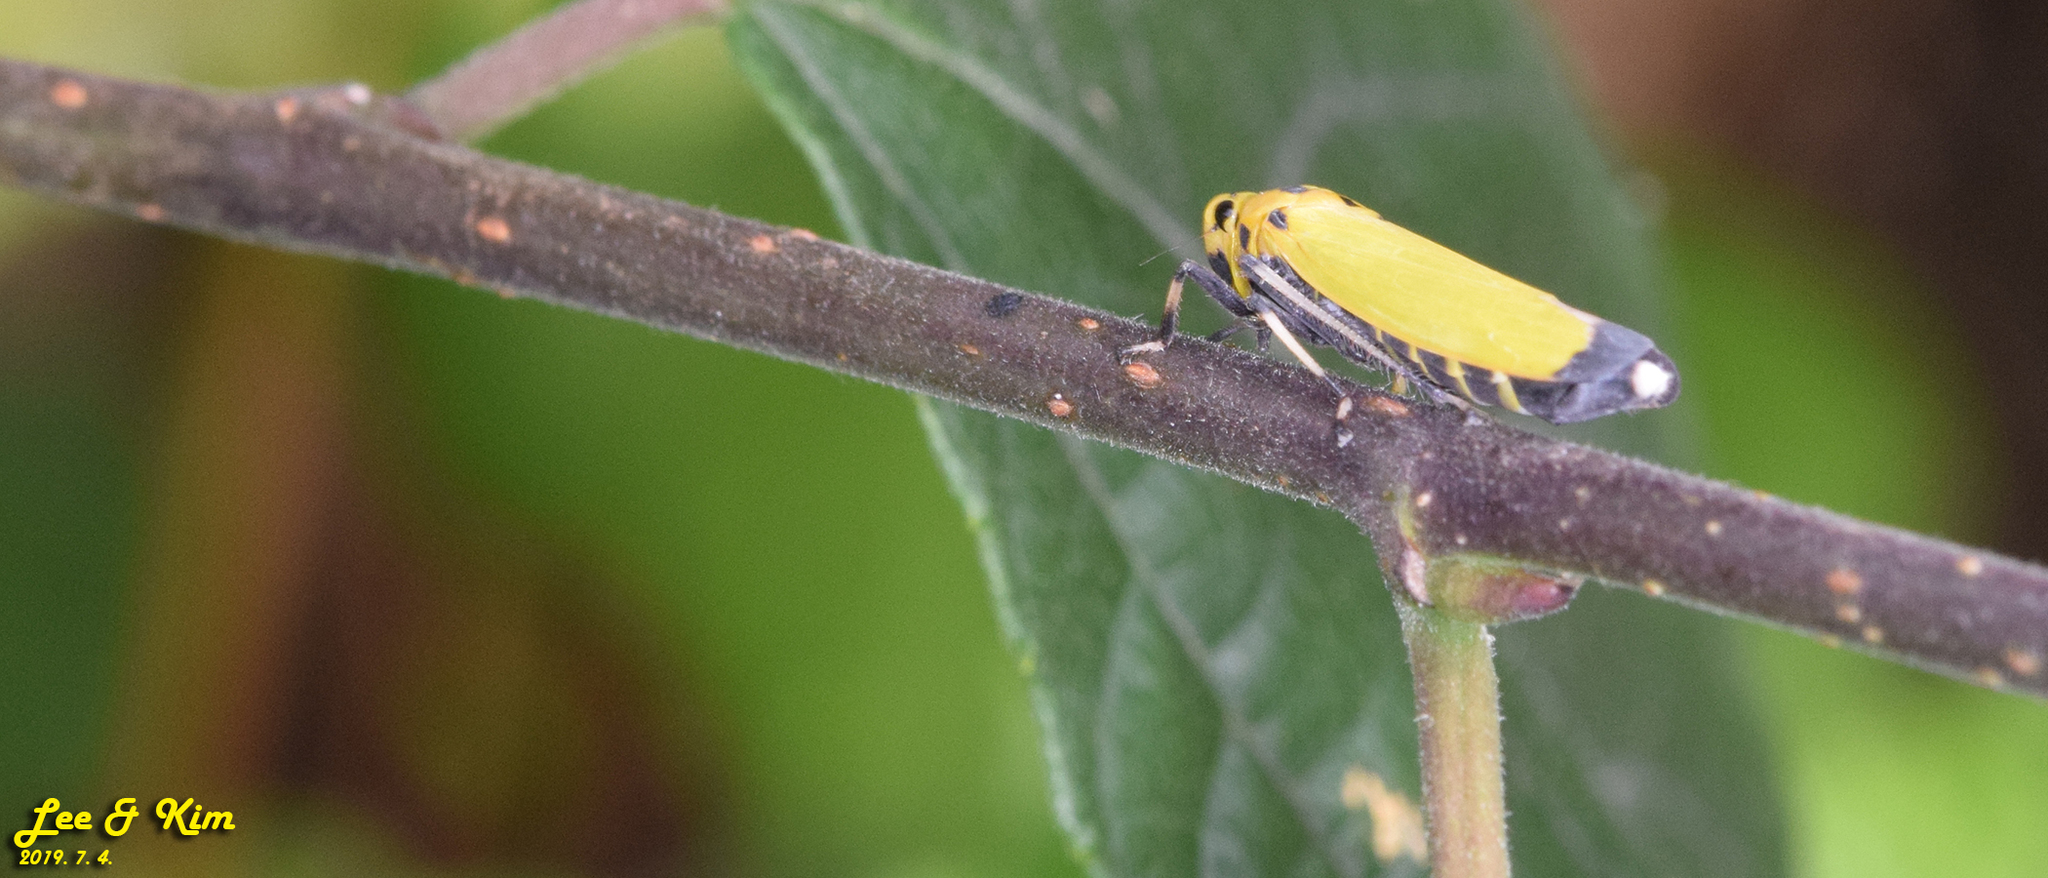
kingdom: Animalia
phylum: Arthropoda
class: Insecta
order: Hemiptera
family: Cicadellidae
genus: Bothrogonia
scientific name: Bothrogonia ferruginea
